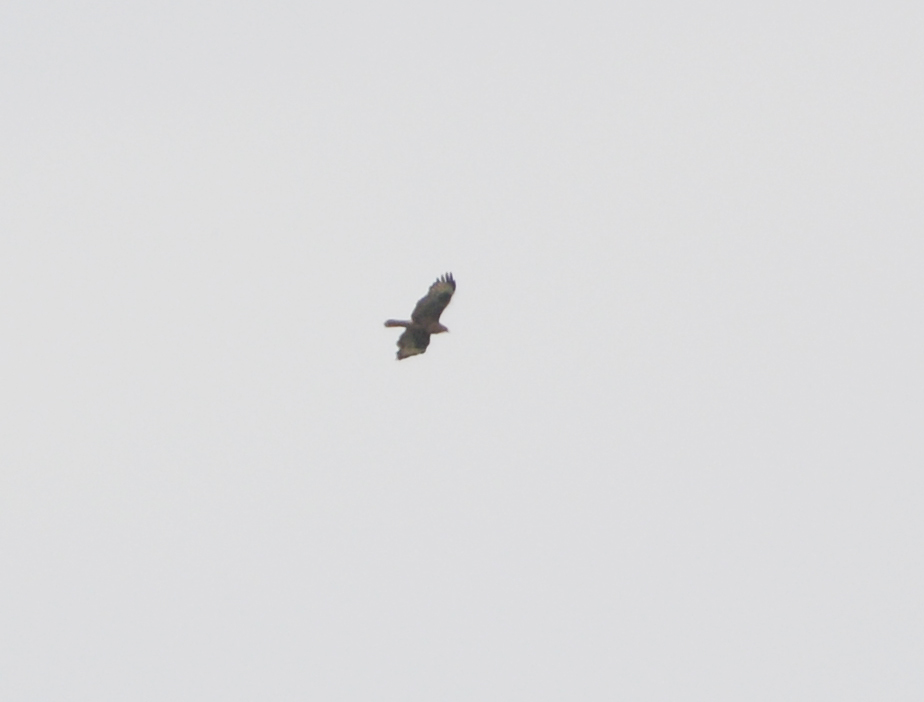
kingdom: Animalia
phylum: Chordata
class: Aves
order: Accipitriformes
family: Accipitridae
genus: Buteo
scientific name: Buteo buteo
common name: Common buzzard
